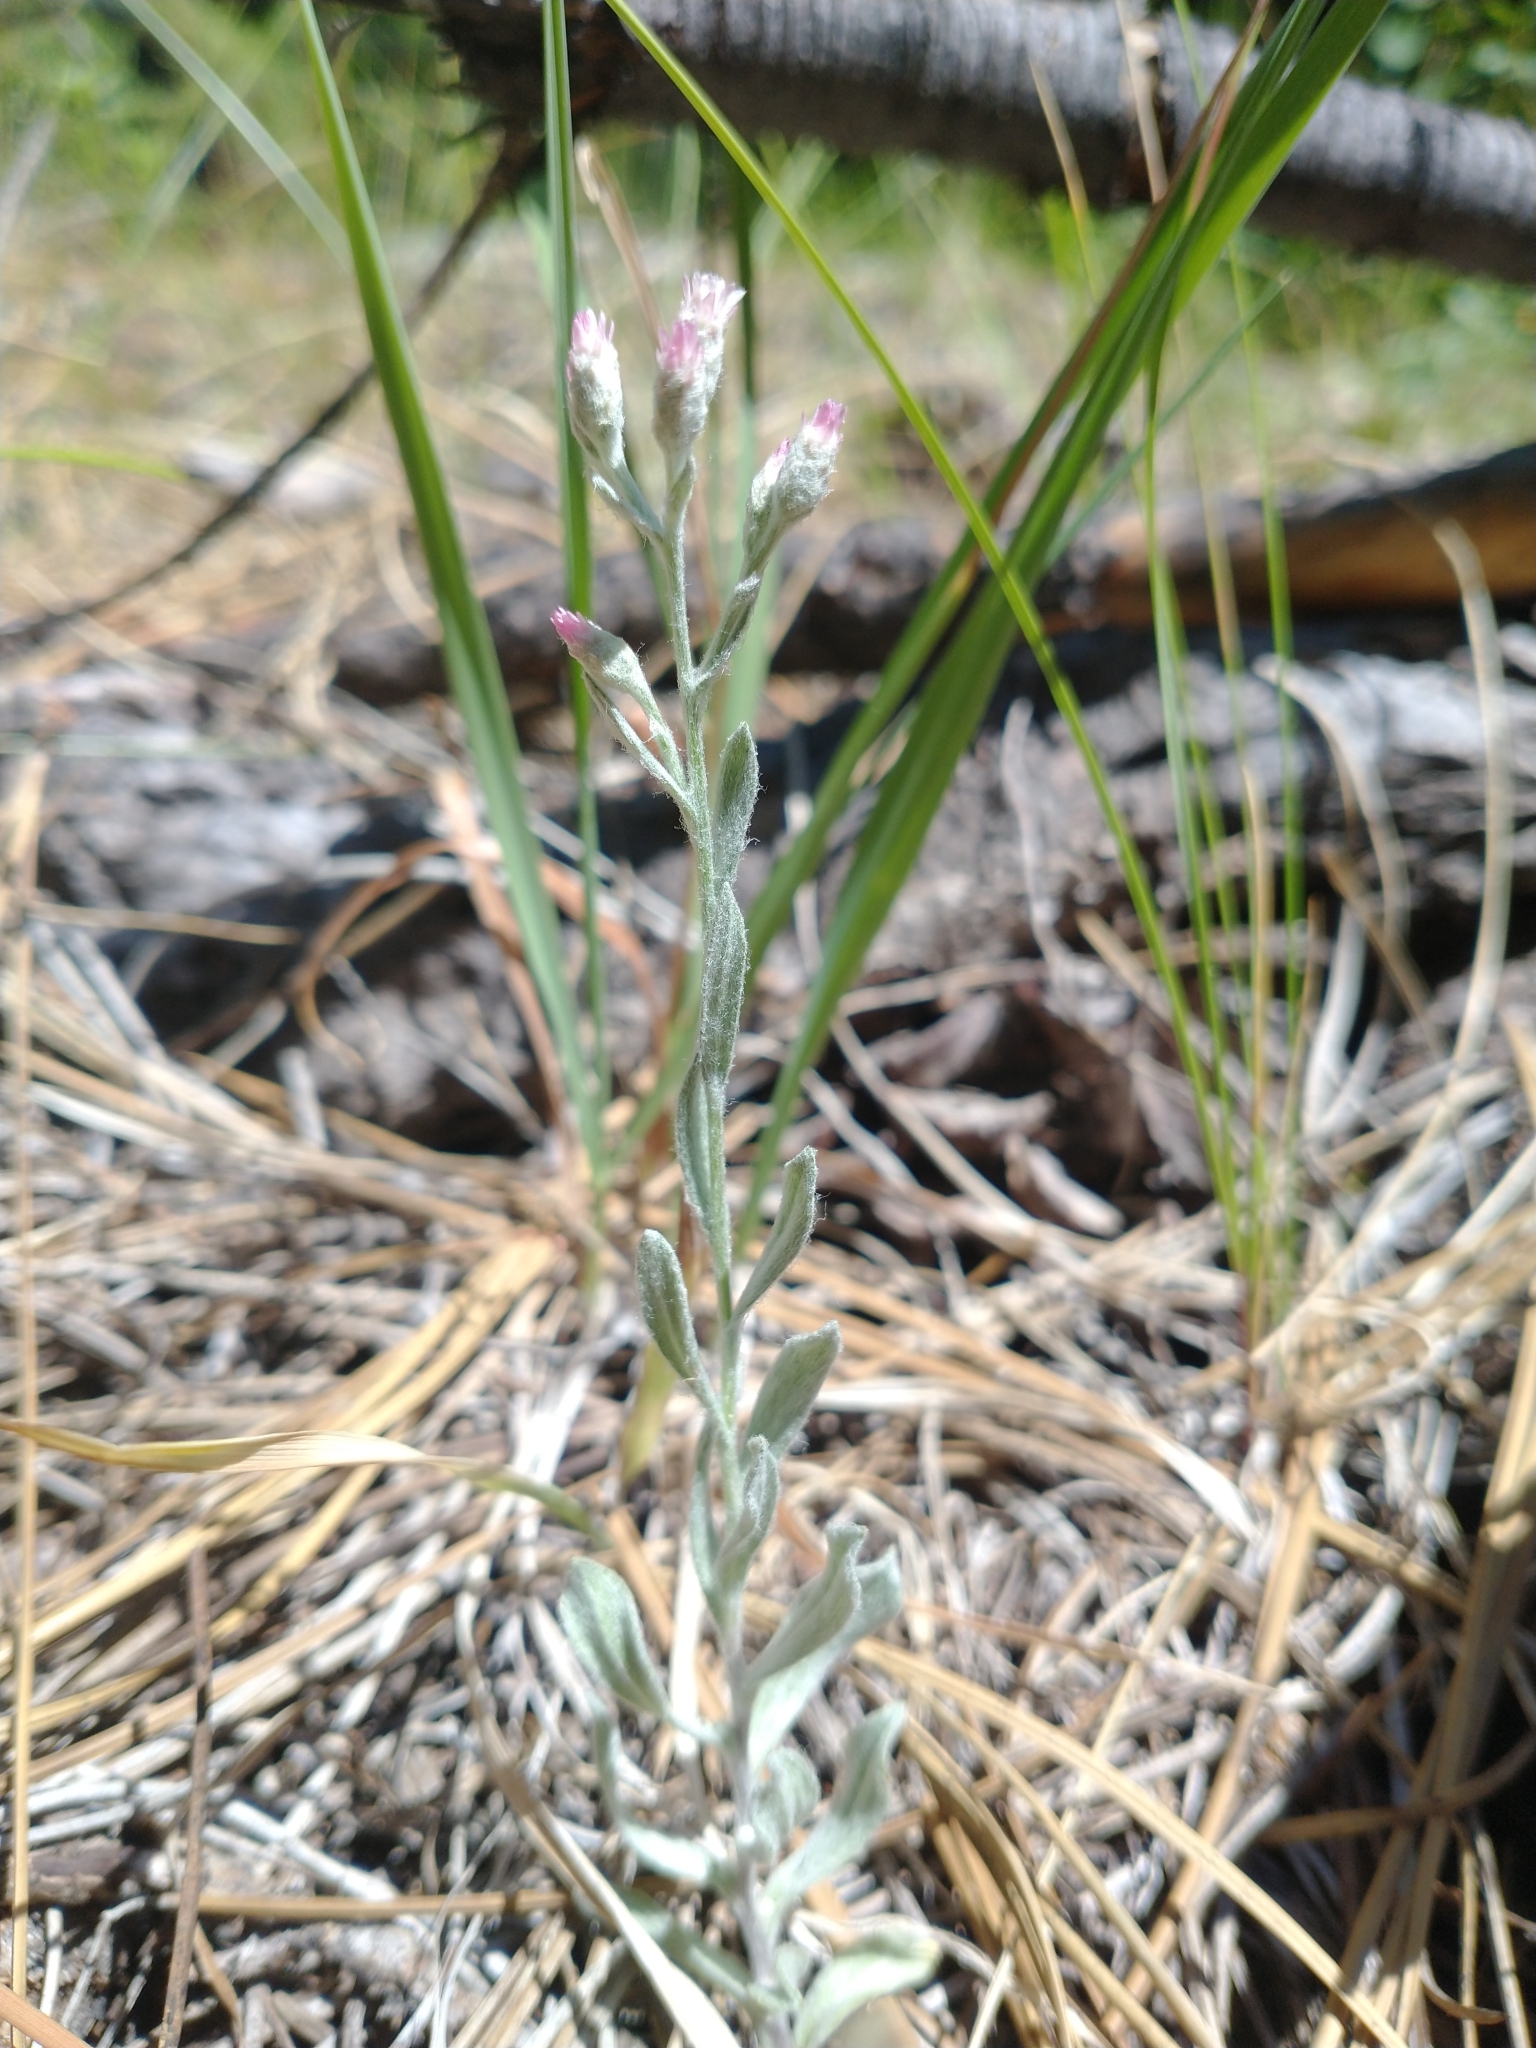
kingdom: Plantae
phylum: Tracheophyta
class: Magnoliopsida
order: Asterales
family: Asteraceae
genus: Antennaria
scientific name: Antennaria geyeri
